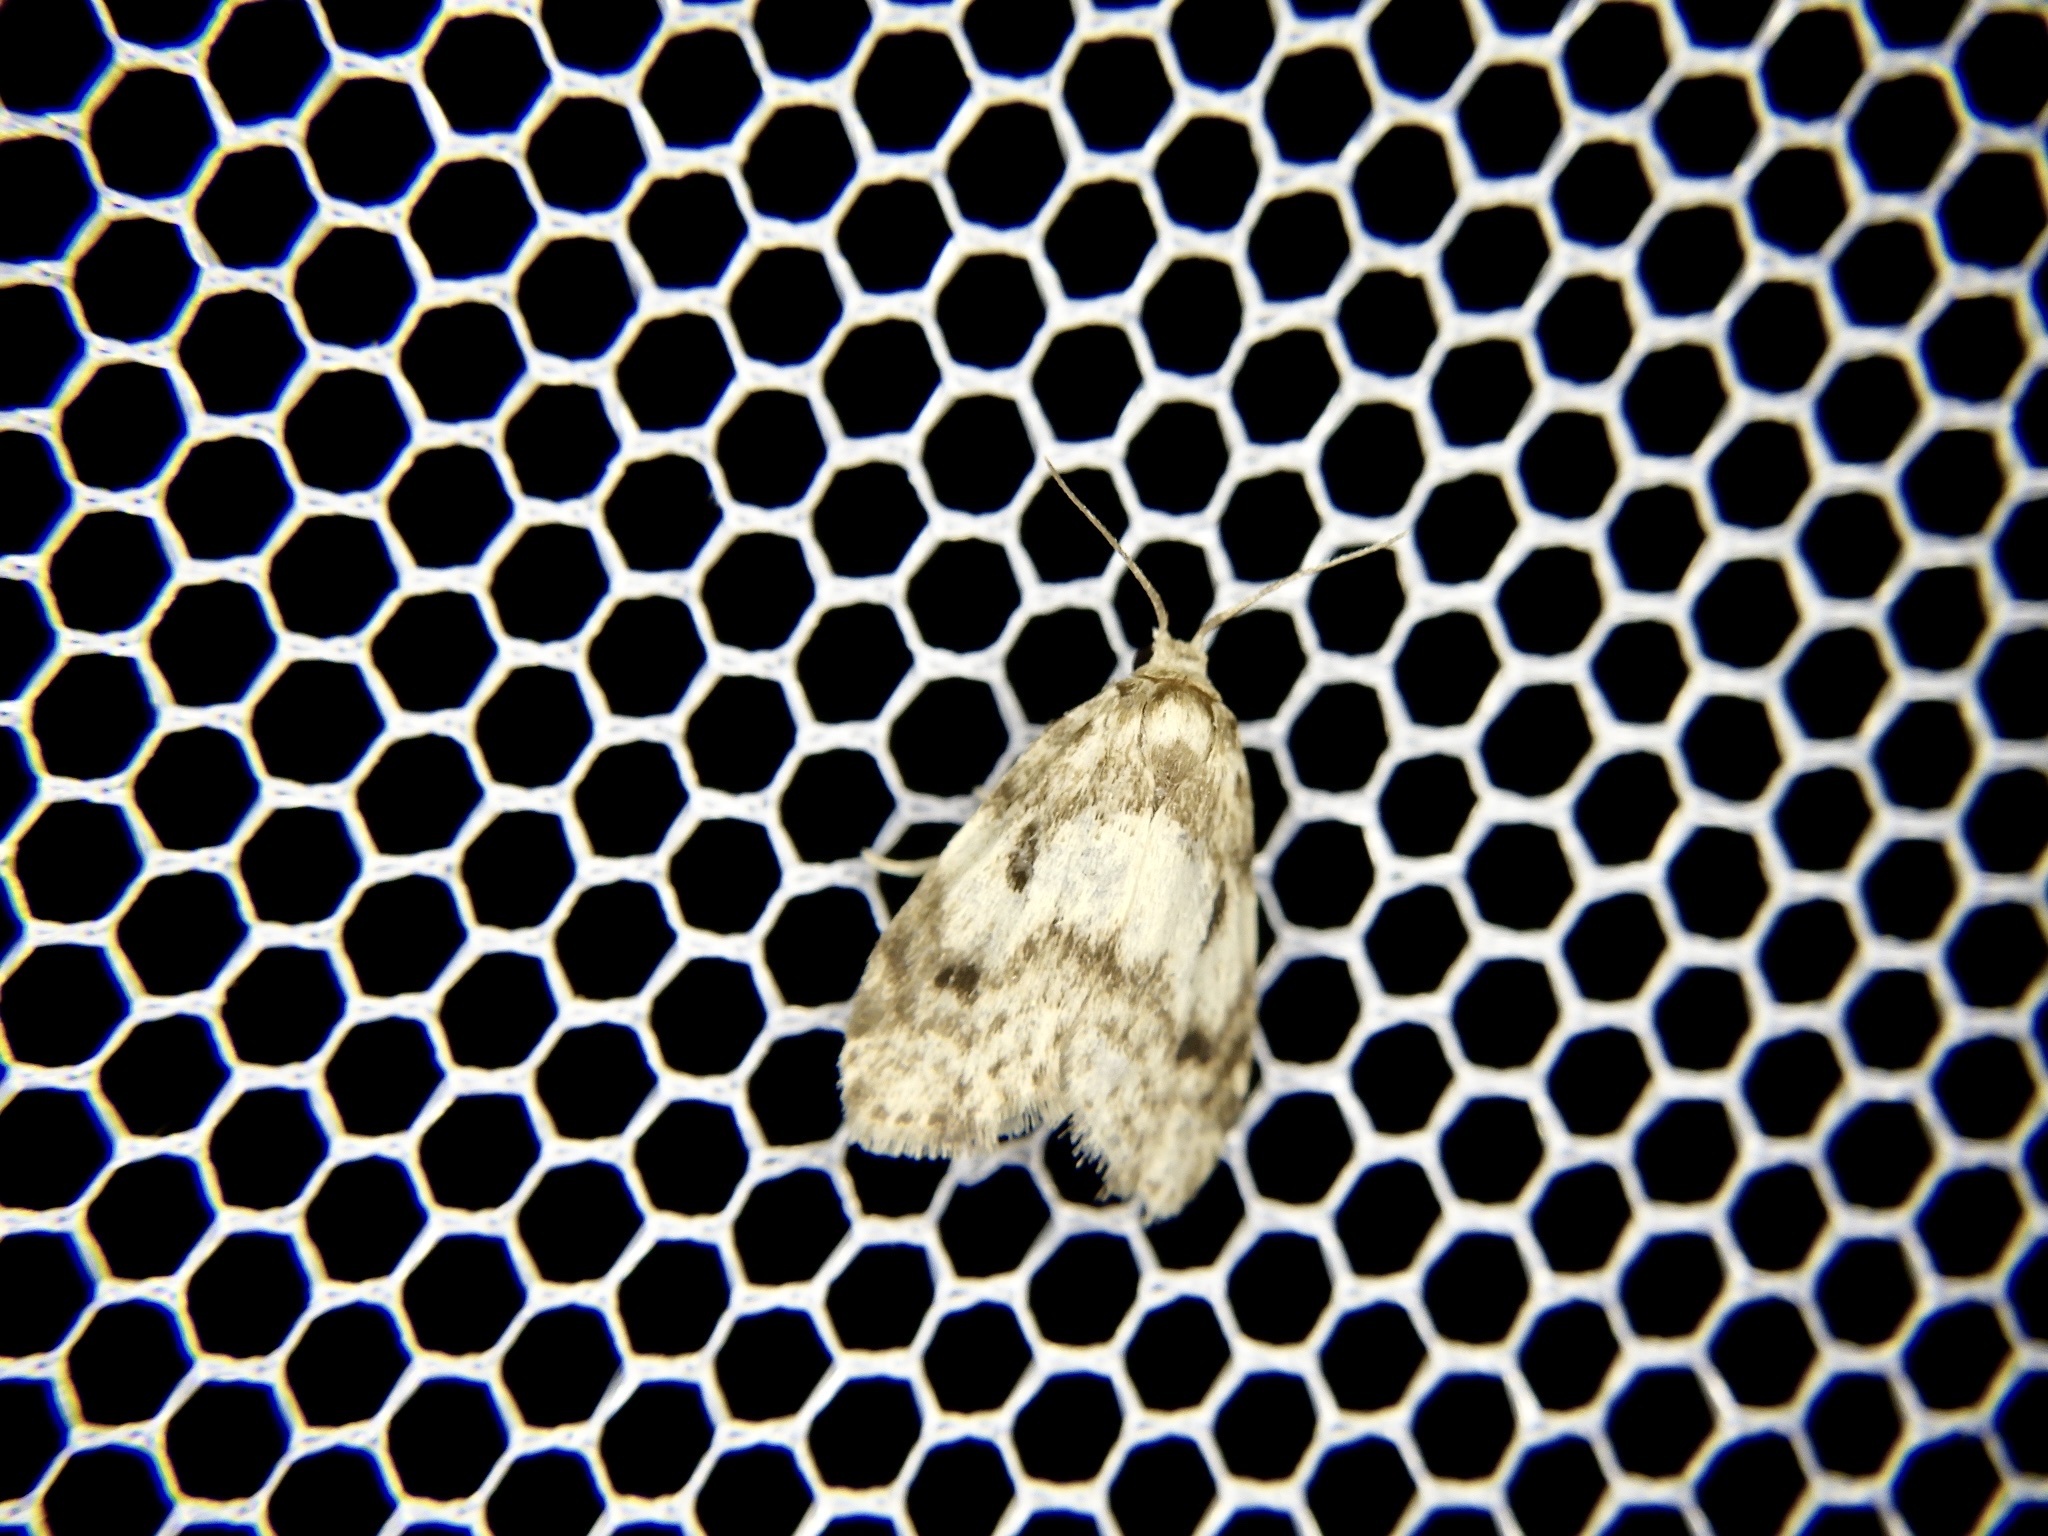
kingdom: Animalia
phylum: Arthropoda
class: Insecta
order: Lepidoptera
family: Erebidae
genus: Siccia
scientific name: Siccia minuta
